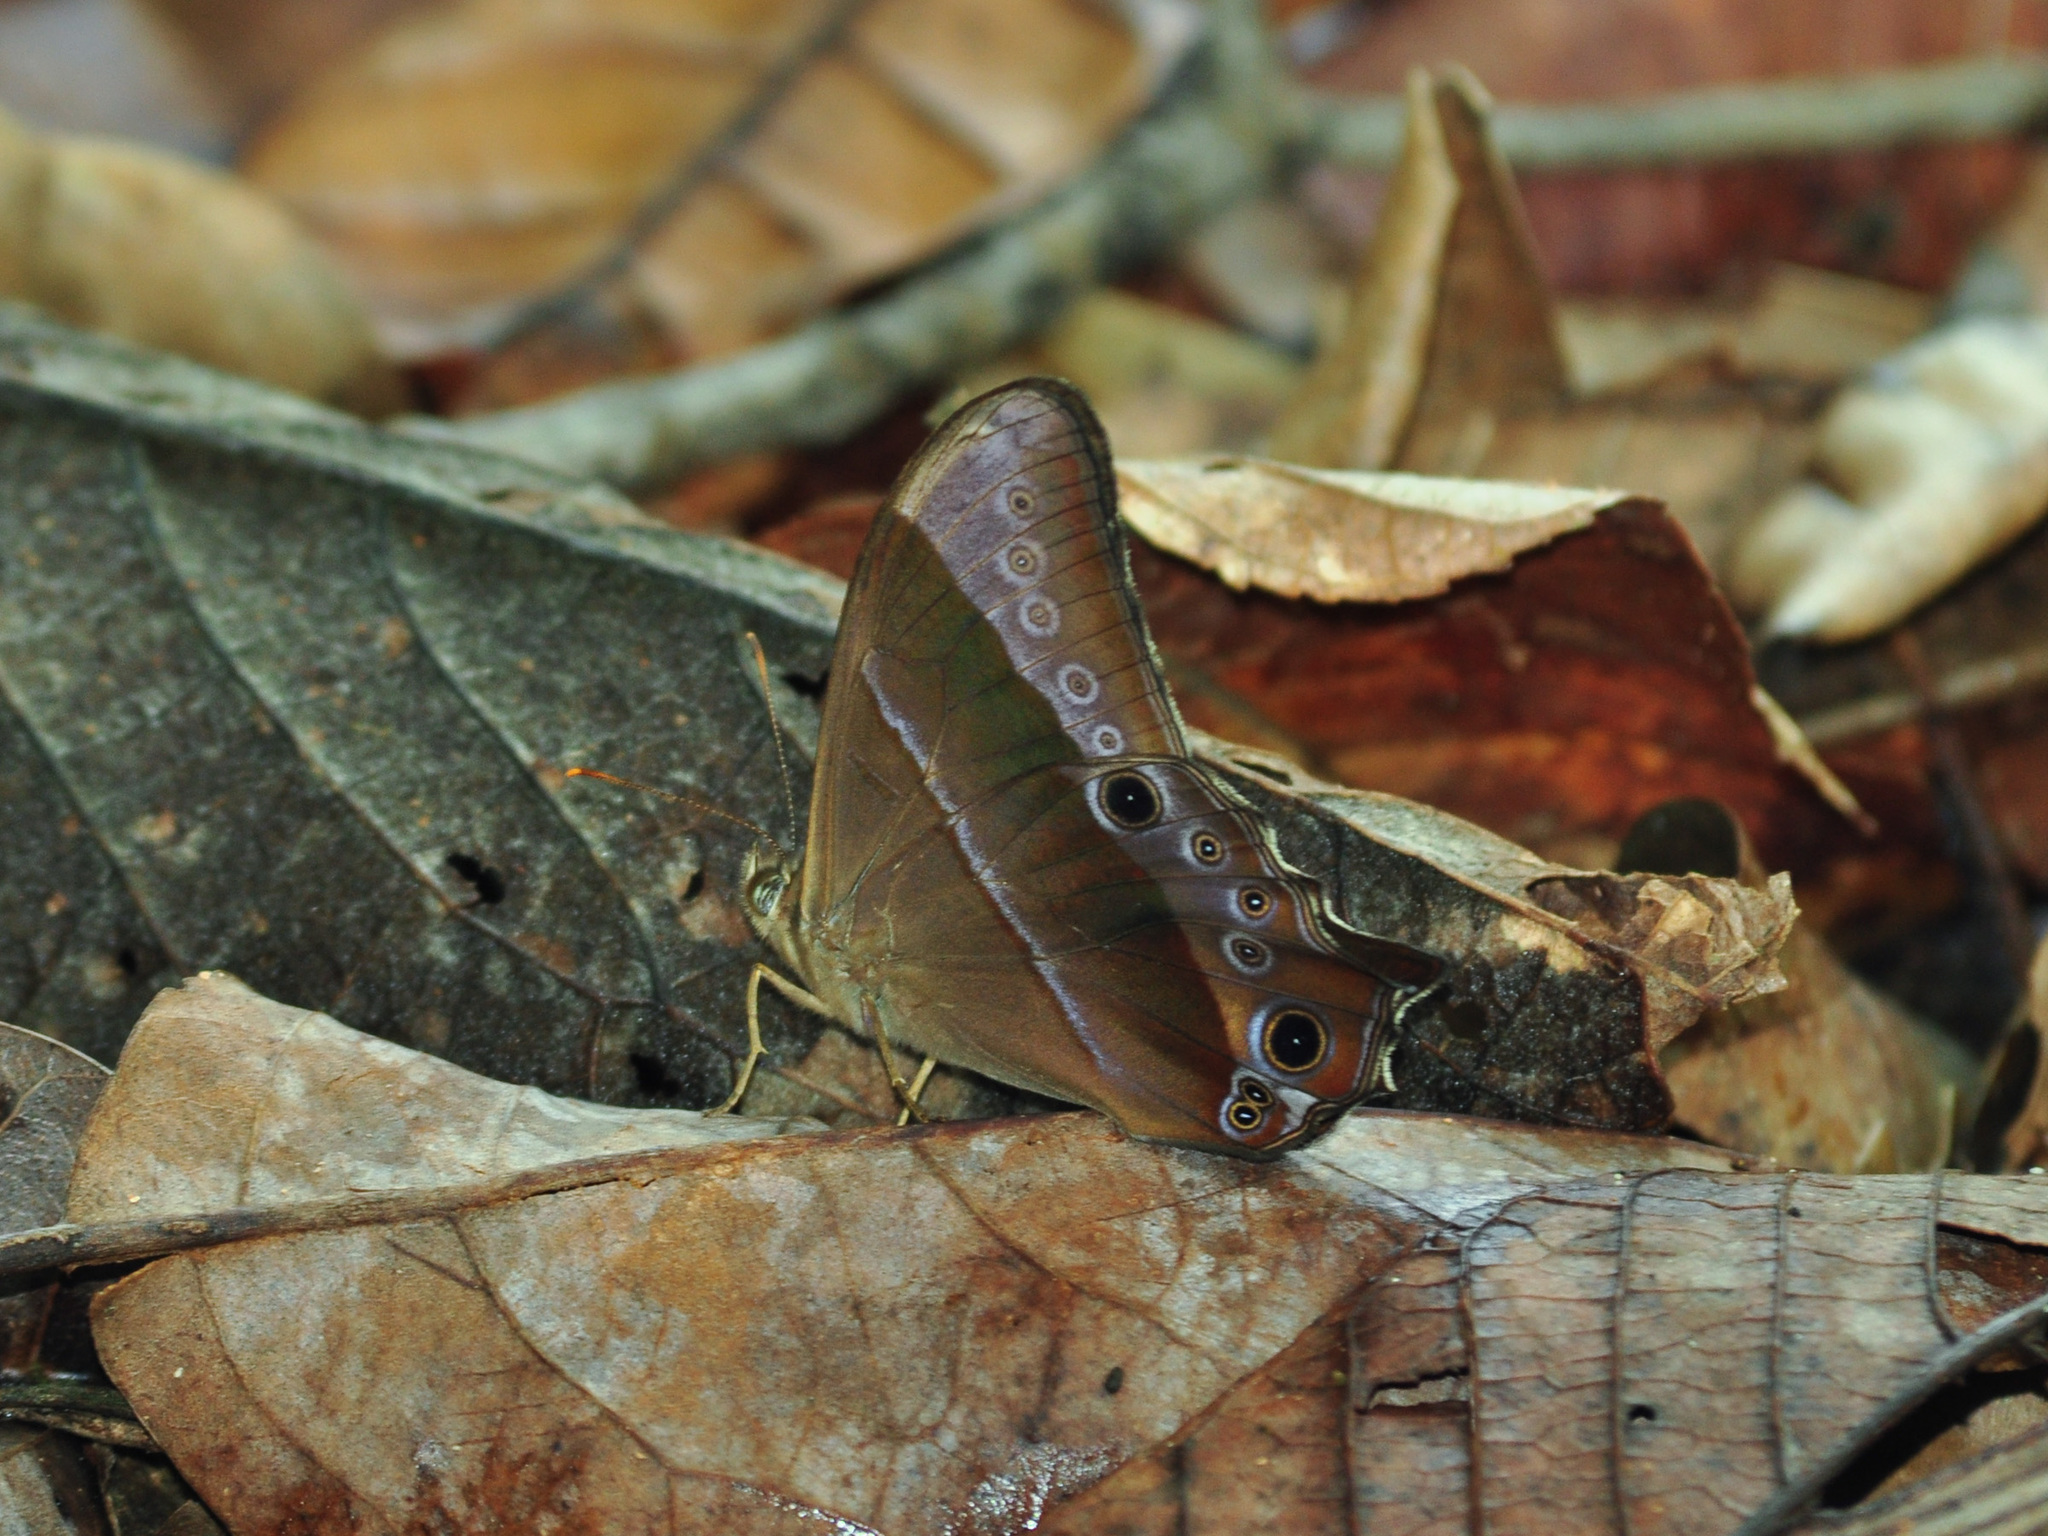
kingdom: Animalia
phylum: Arthropoda
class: Insecta
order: Lepidoptera
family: Nymphalidae
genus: Lethe
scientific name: Lethe vindhya
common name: Black forester
